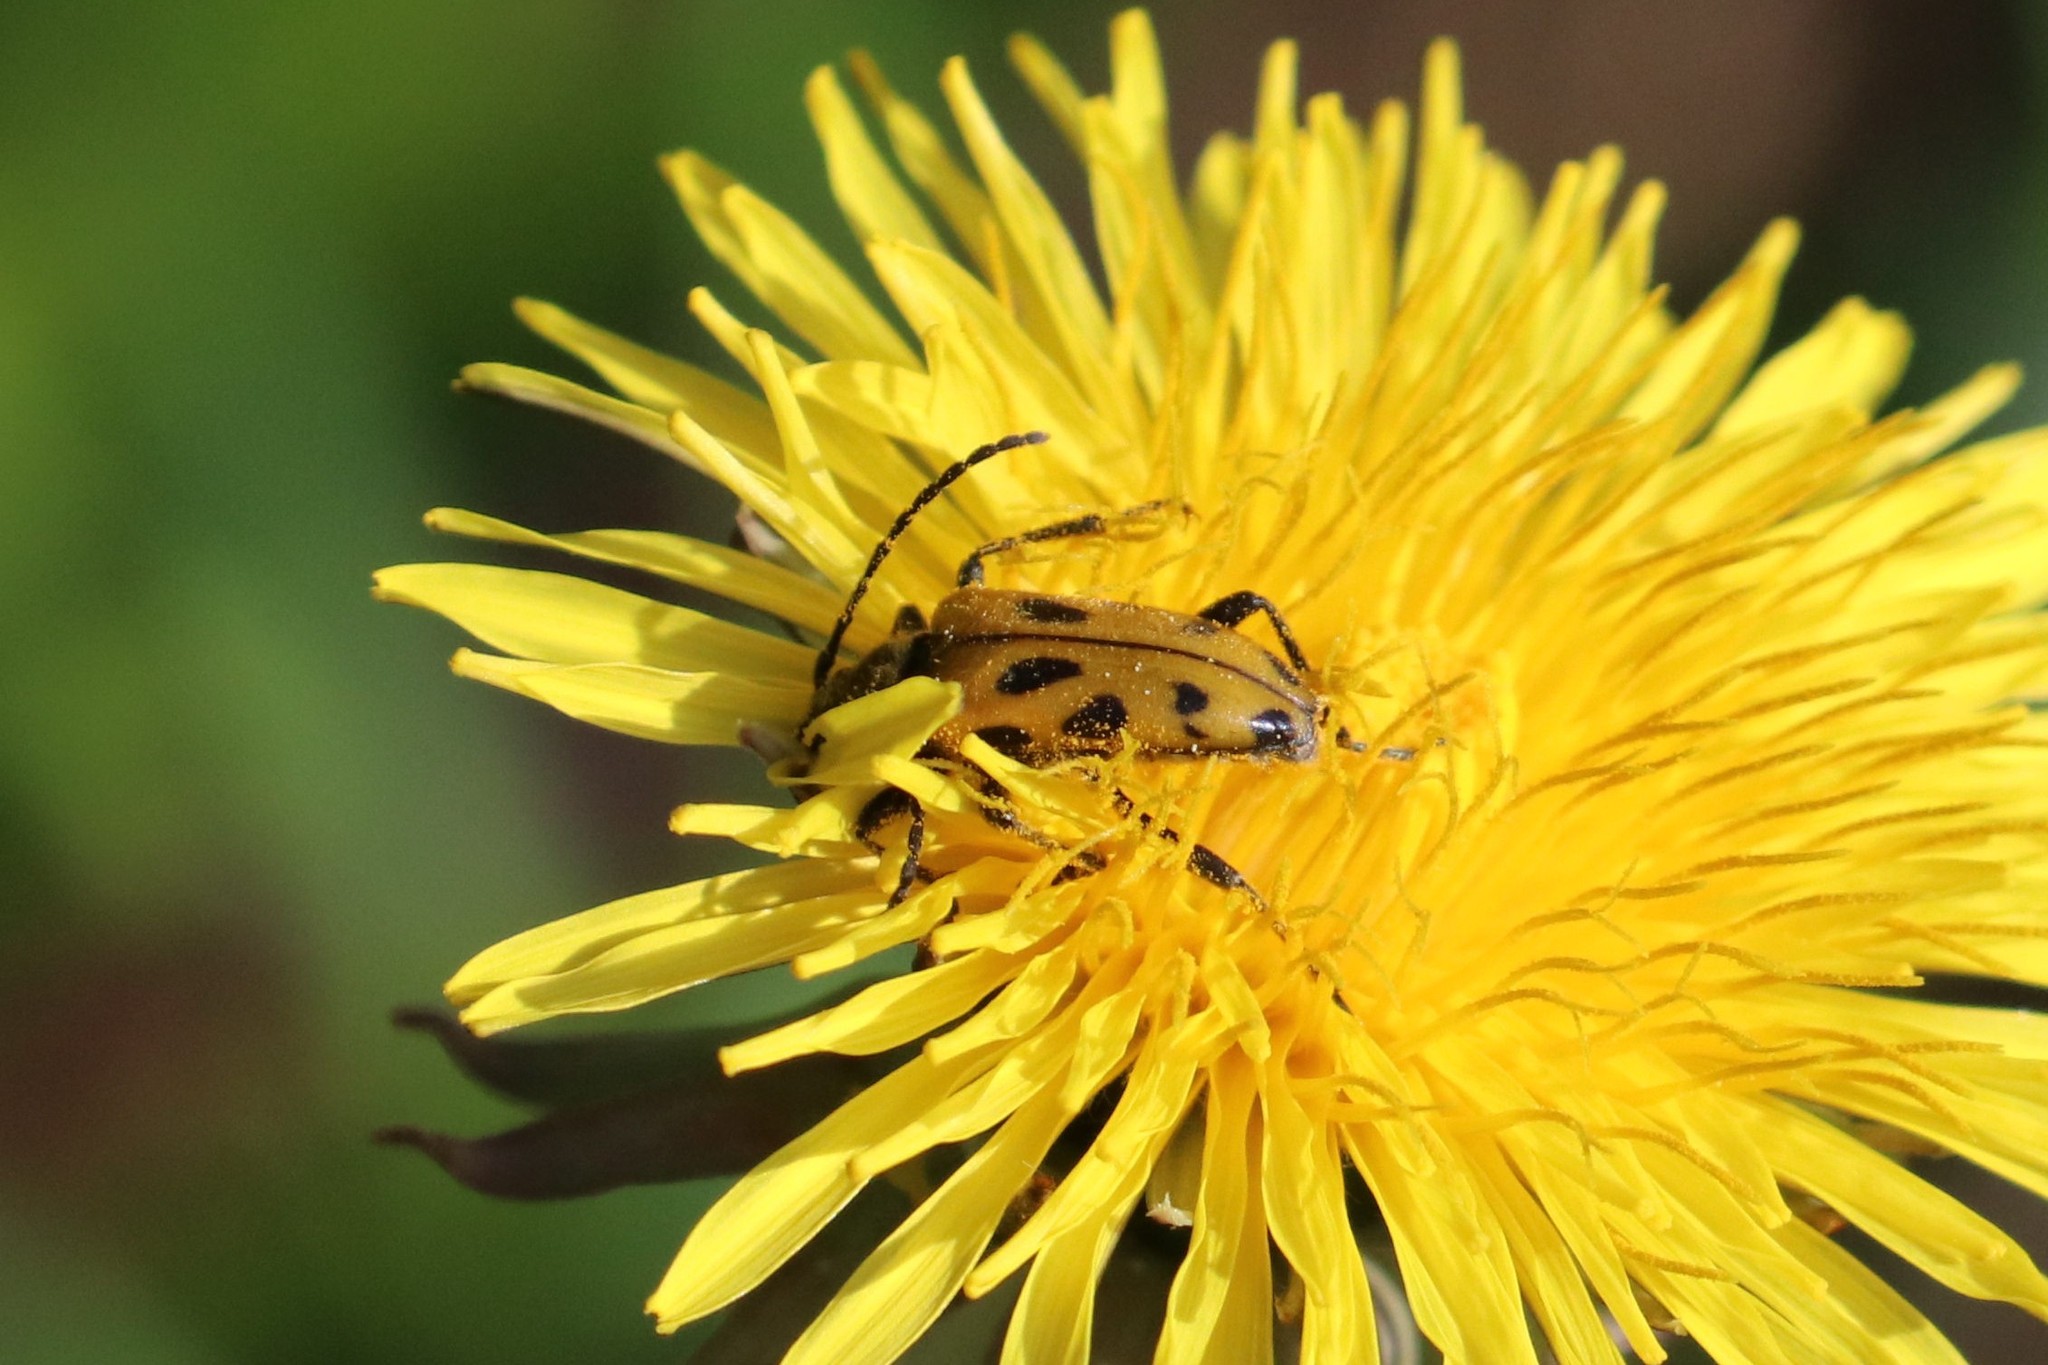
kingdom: Animalia
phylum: Arthropoda
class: Insecta
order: Coleoptera
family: Cerambycidae
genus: Brachyta
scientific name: Brachyta interrogationis
